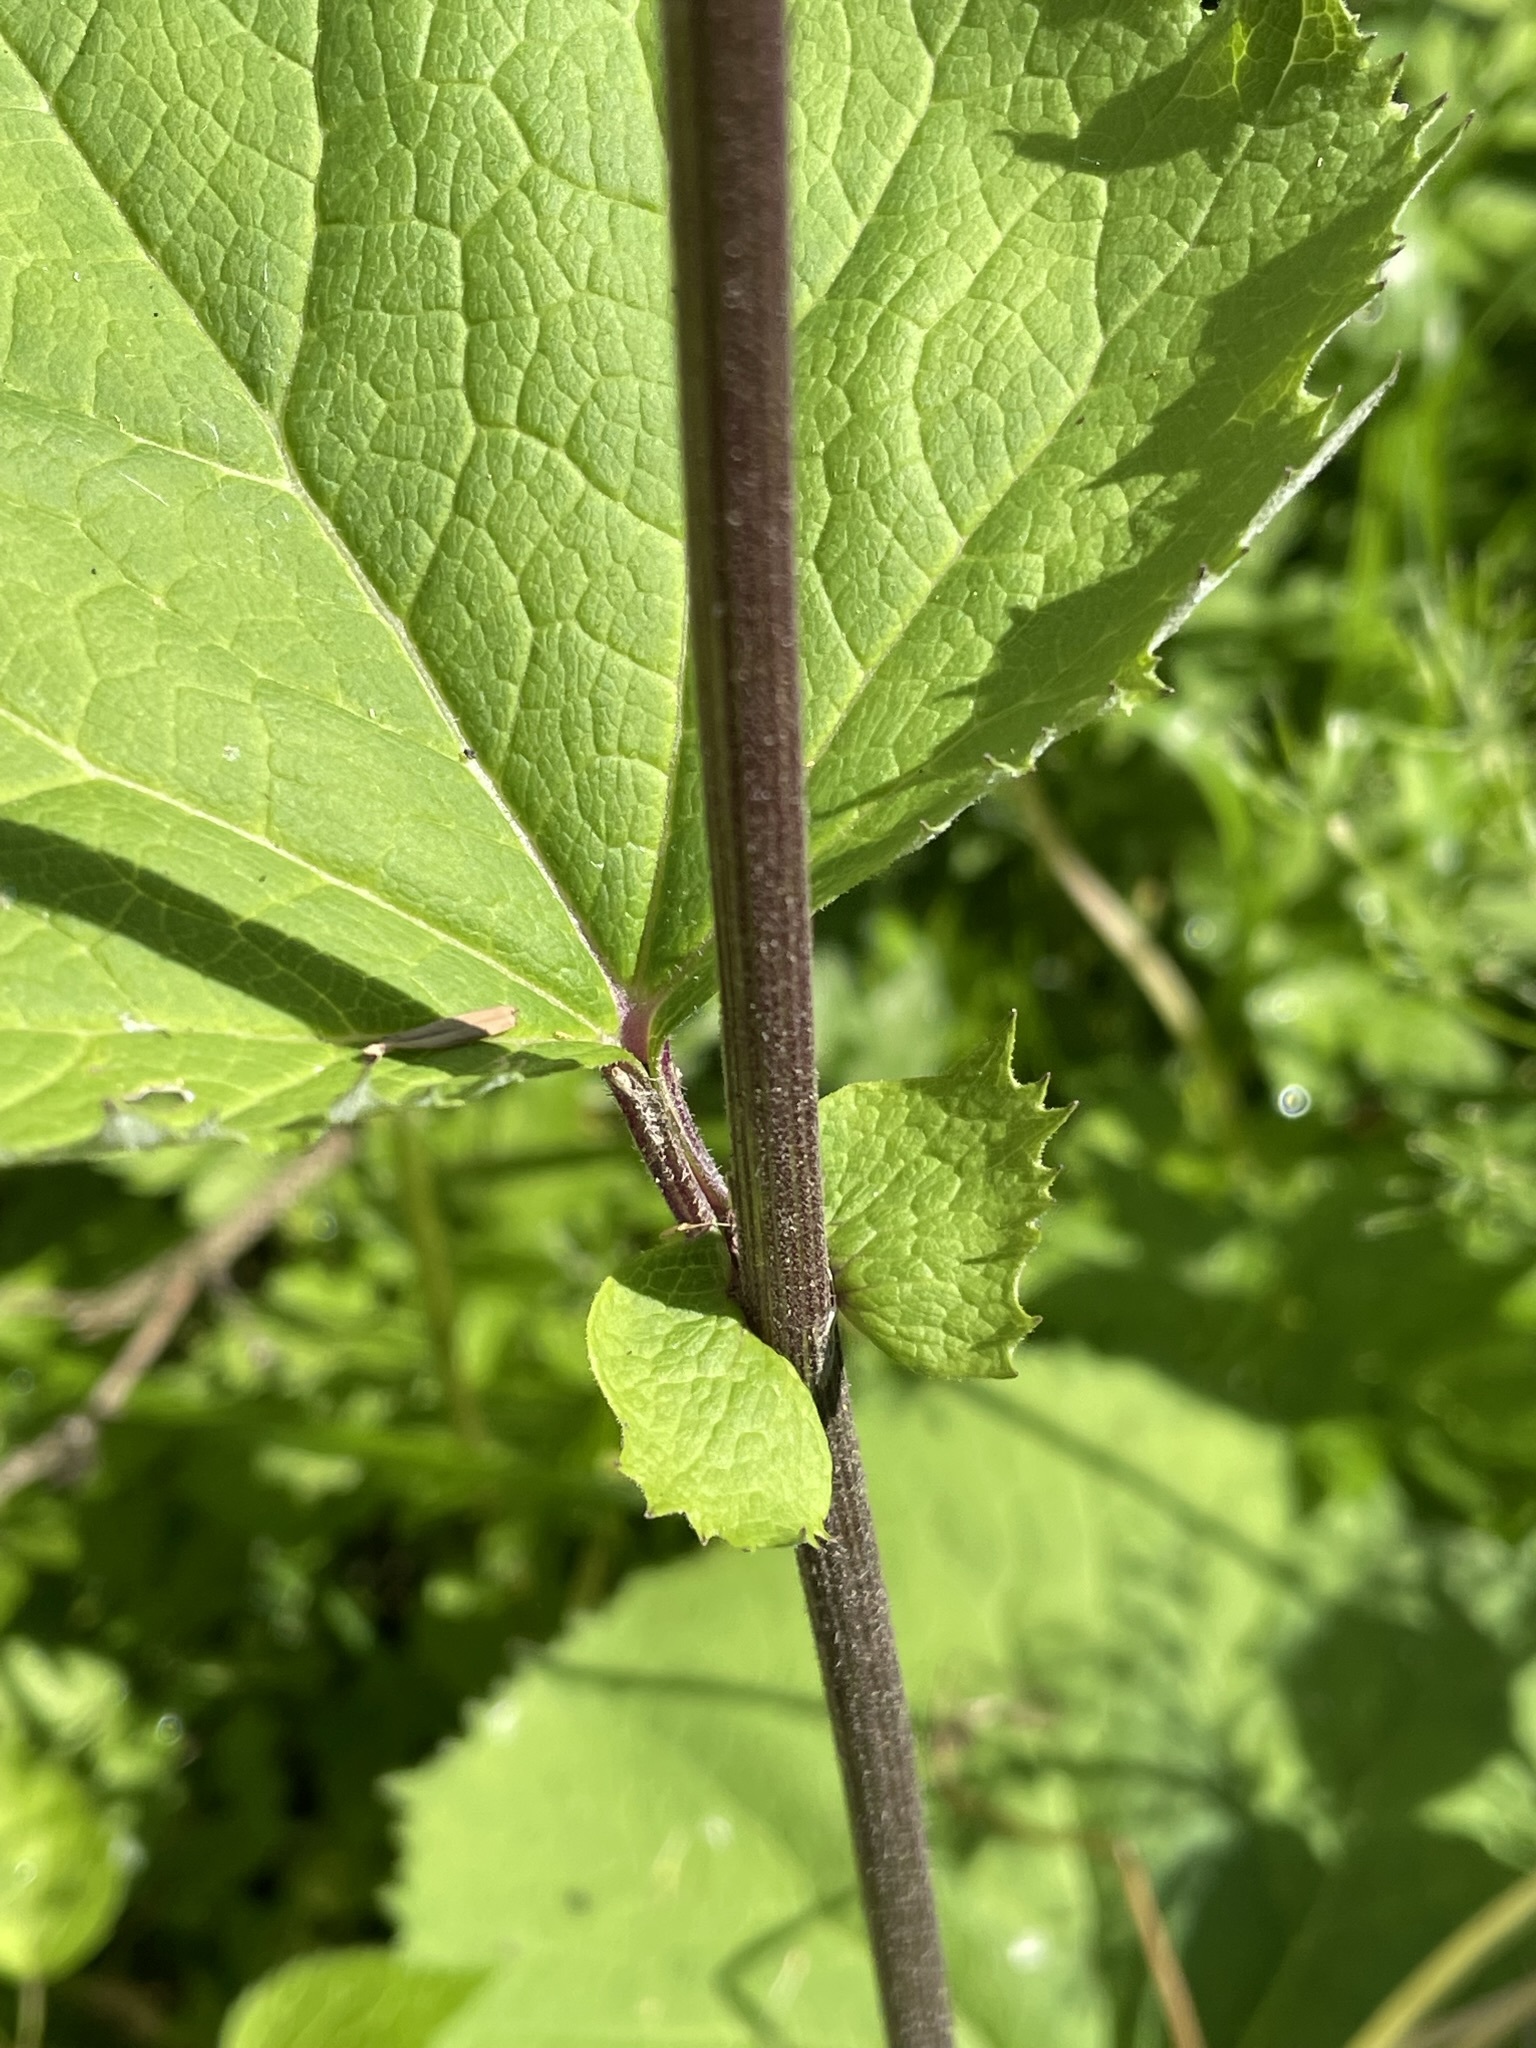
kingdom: Plantae
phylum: Tracheophyta
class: Magnoliopsida
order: Asterales
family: Asteraceae
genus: Adenostyles
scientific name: Adenostyles alliariae
